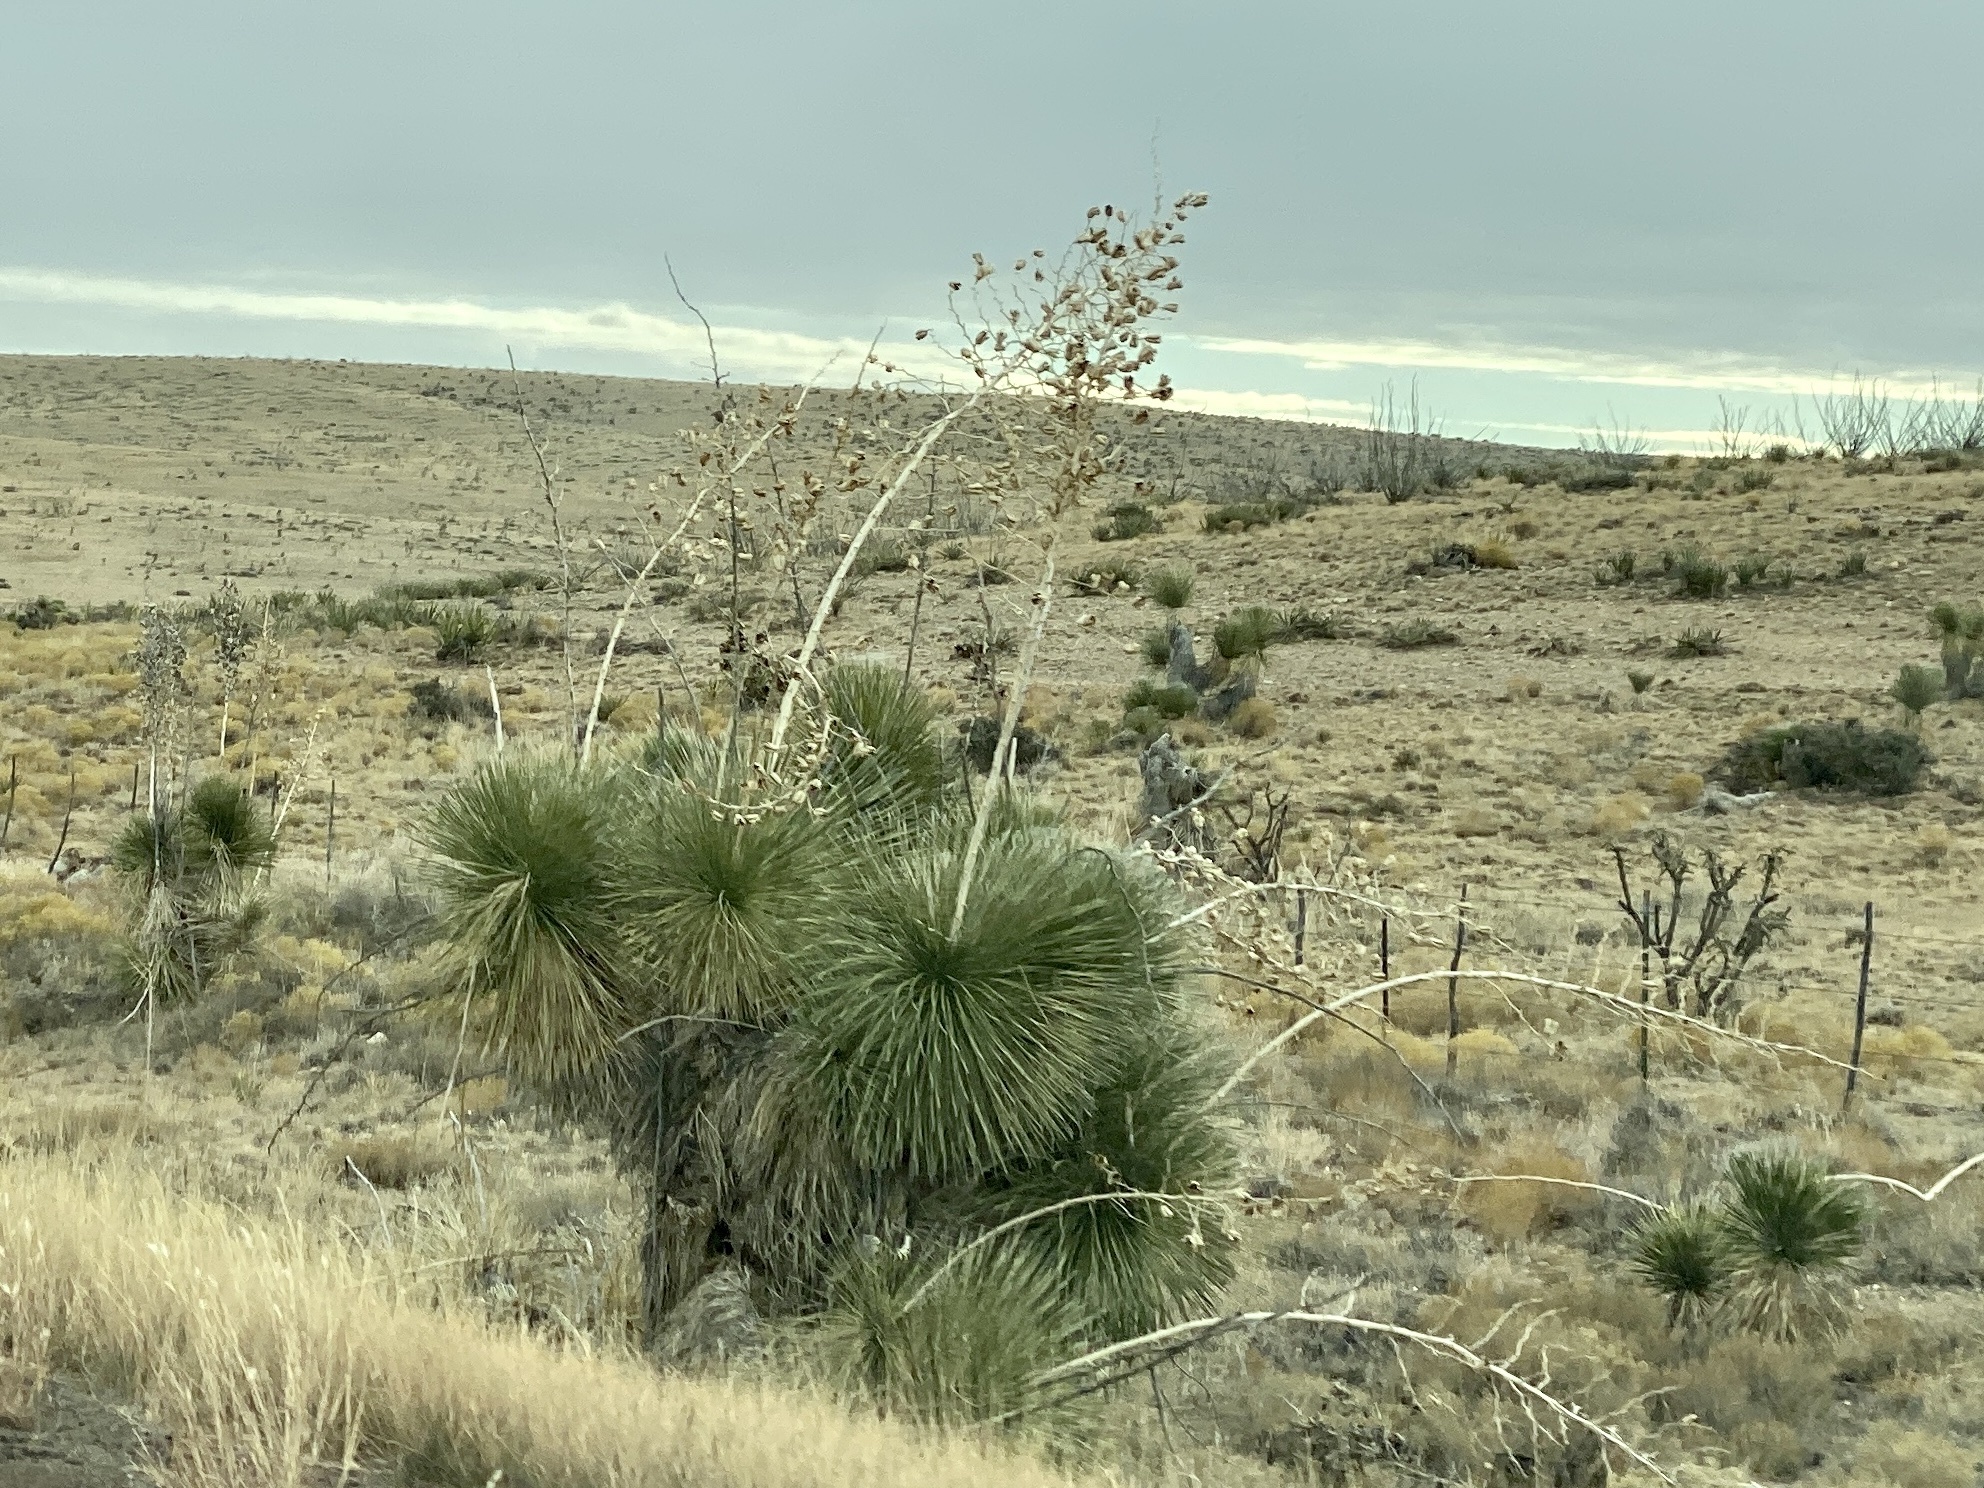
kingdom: Plantae
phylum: Tracheophyta
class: Liliopsida
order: Asparagales
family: Asparagaceae
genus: Yucca
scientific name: Yucca elata
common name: Palmella
